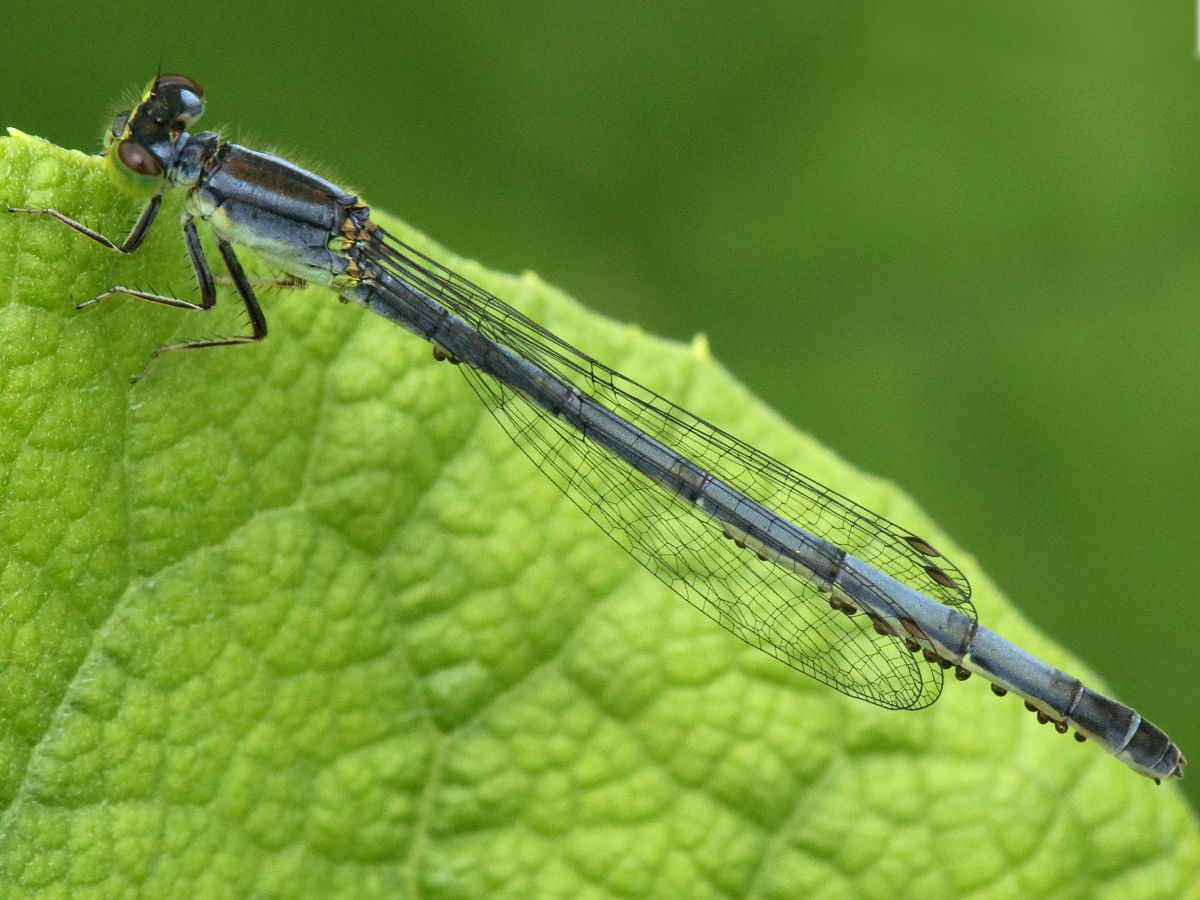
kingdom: Animalia
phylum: Arthropoda
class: Insecta
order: Odonata
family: Coenagrionidae
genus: Ischnura
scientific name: Ischnura verticalis
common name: Eastern forktail
